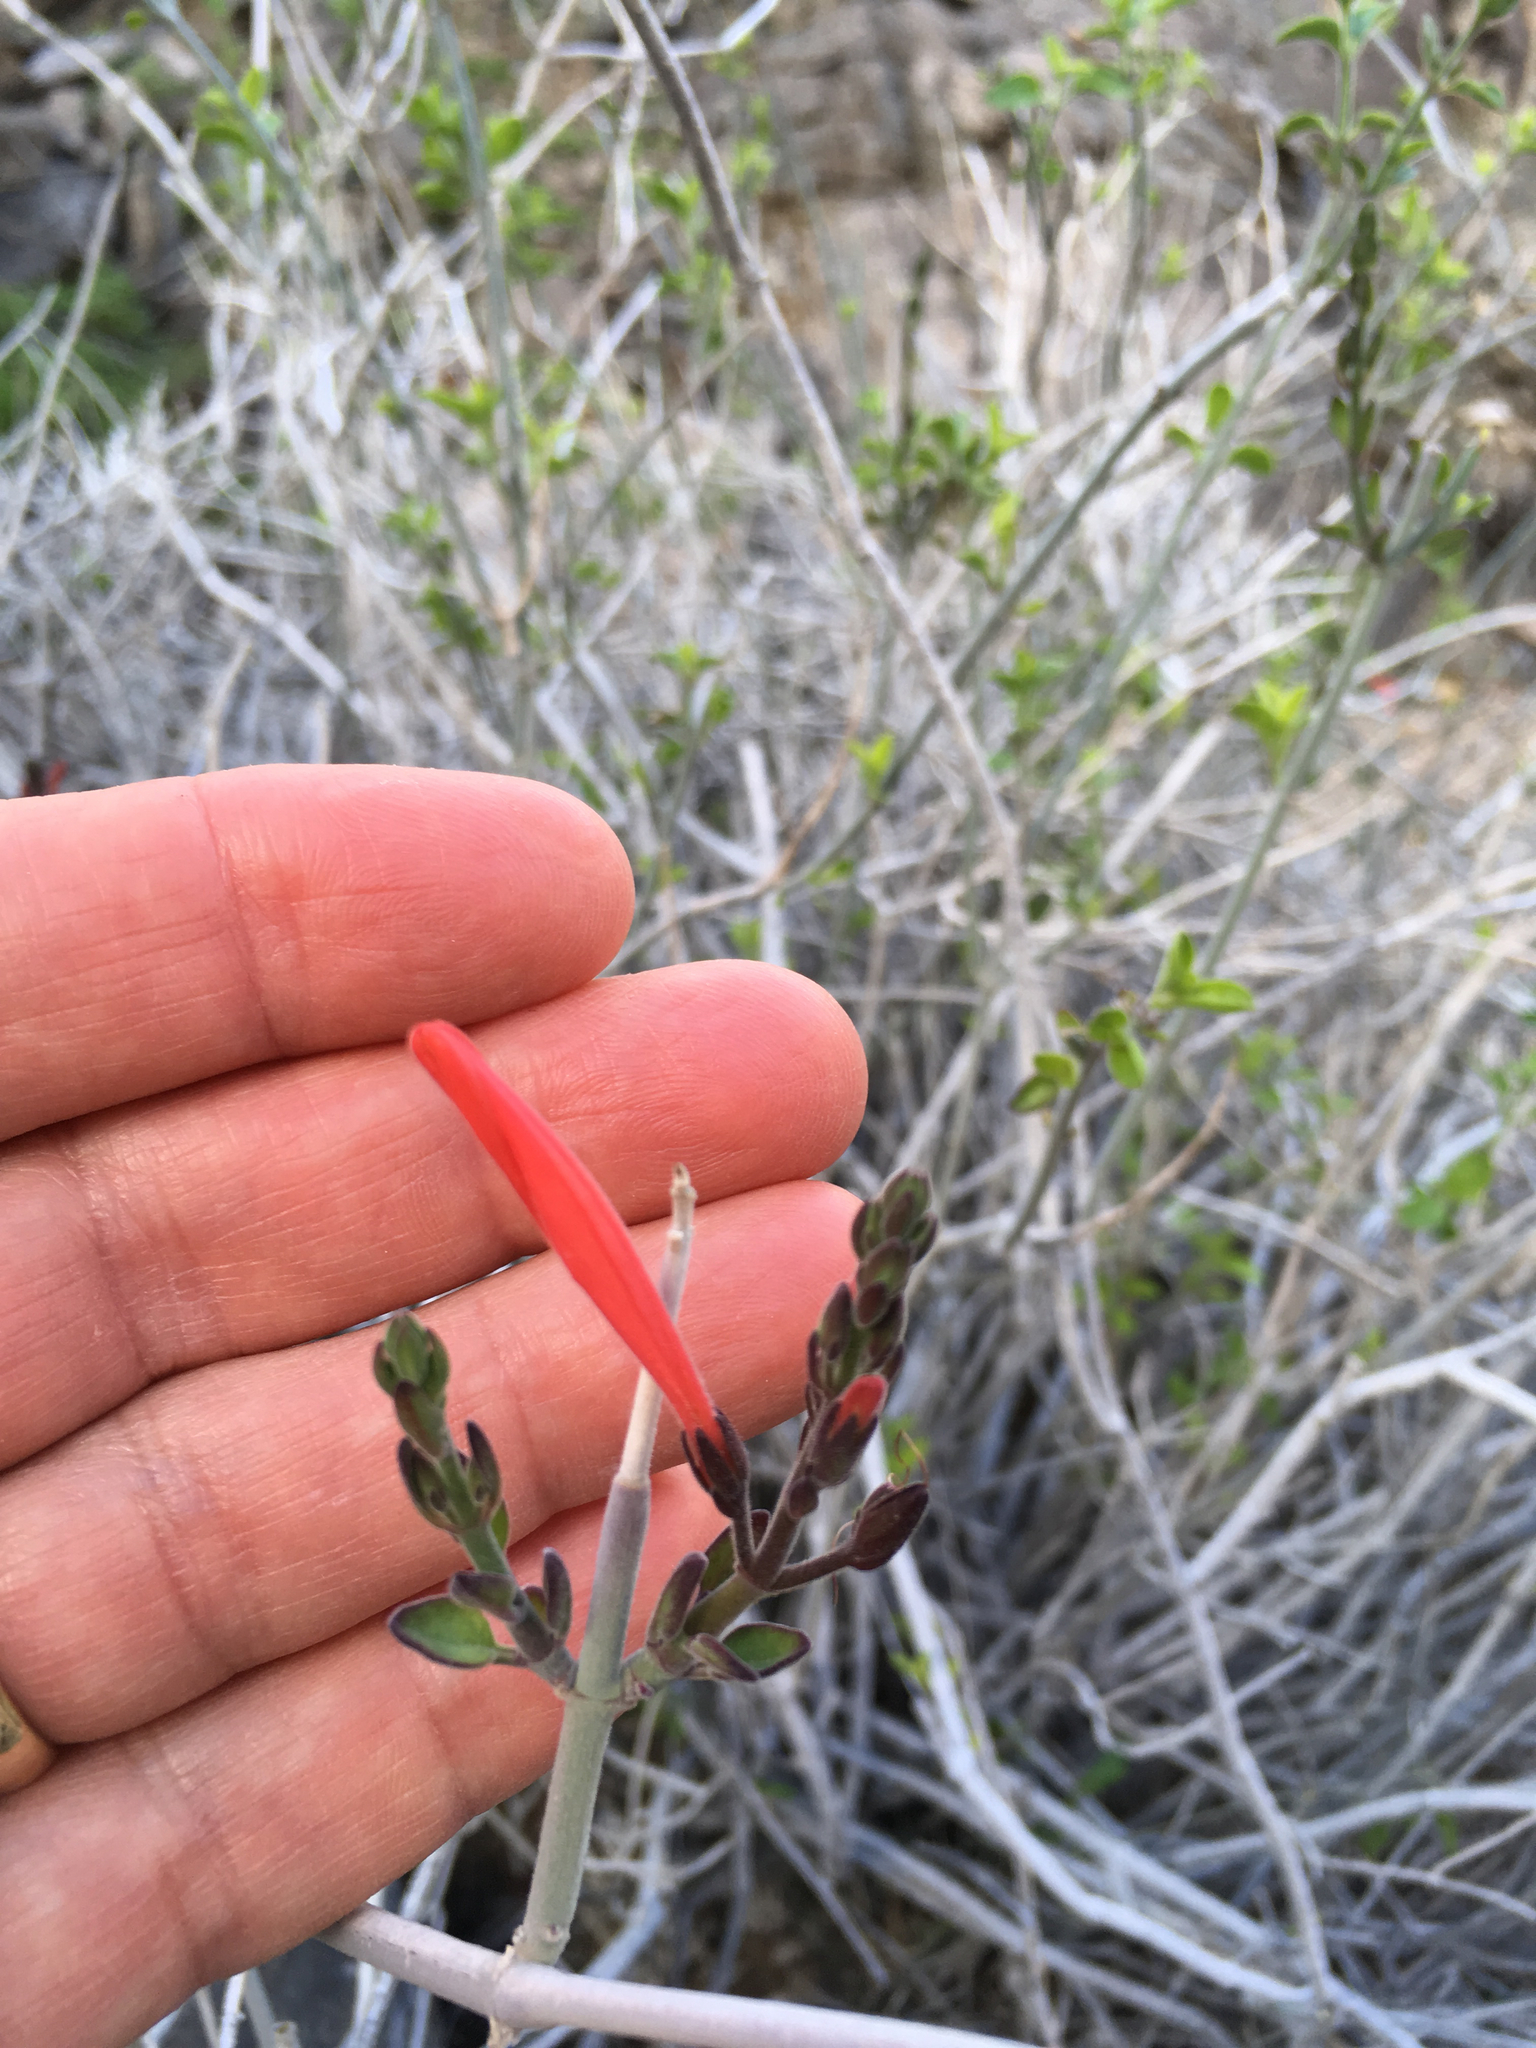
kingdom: Plantae
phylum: Tracheophyta
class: Magnoliopsida
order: Lamiales
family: Acanthaceae
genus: Justicia
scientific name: Justicia californica
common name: Chuparosa-honeysuckle
